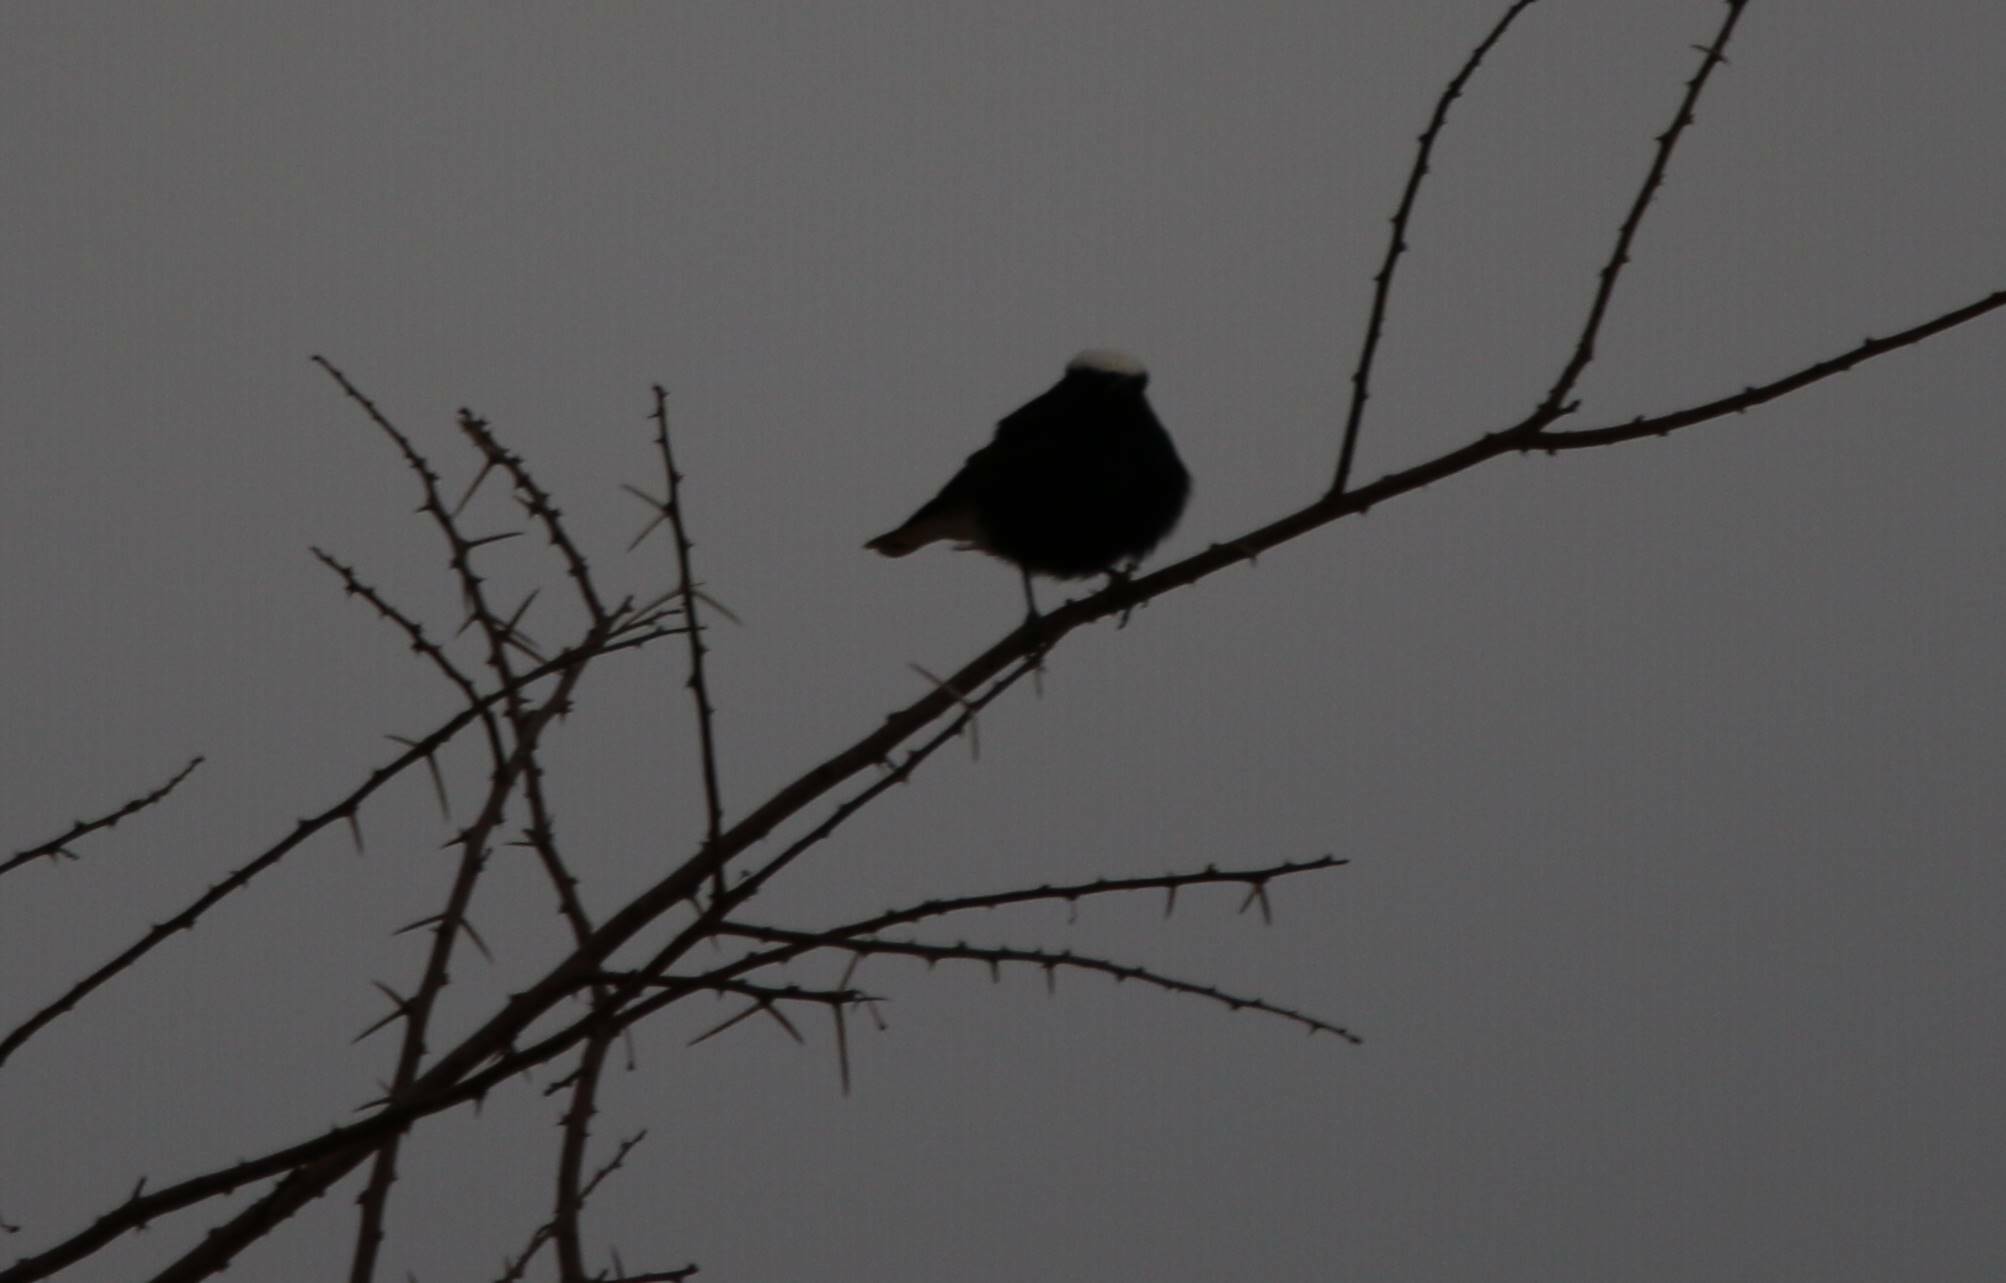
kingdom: Animalia
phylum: Chordata
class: Aves
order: Passeriformes
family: Muscicapidae
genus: Oenanthe
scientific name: Oenanthe leucopyga
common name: White-crowned wheatear
